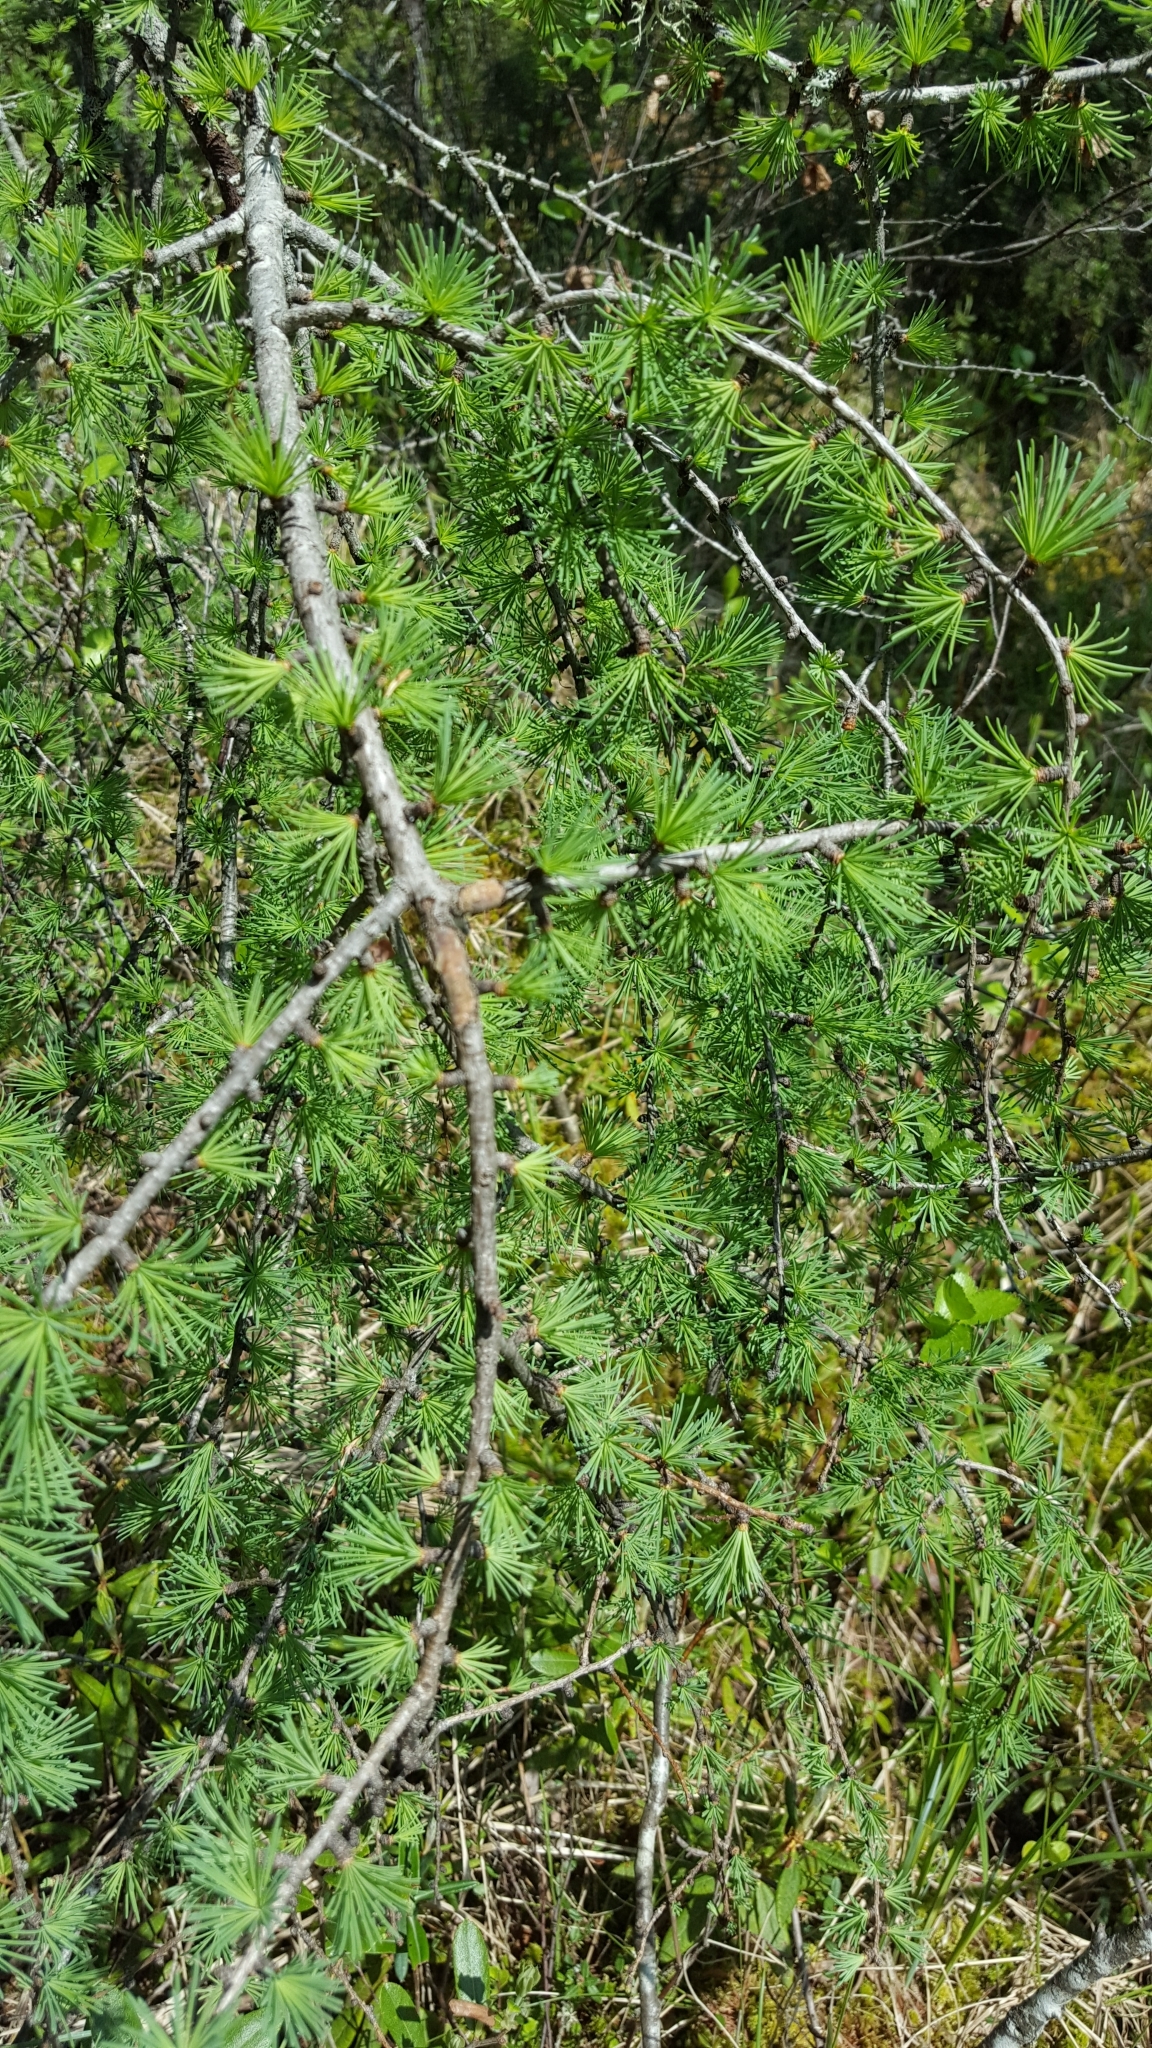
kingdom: Plantae
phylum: Tracheophyta
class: Pinopsida
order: Pinales
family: Pinaceae
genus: Larix
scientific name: Larix laricina
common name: American larch
